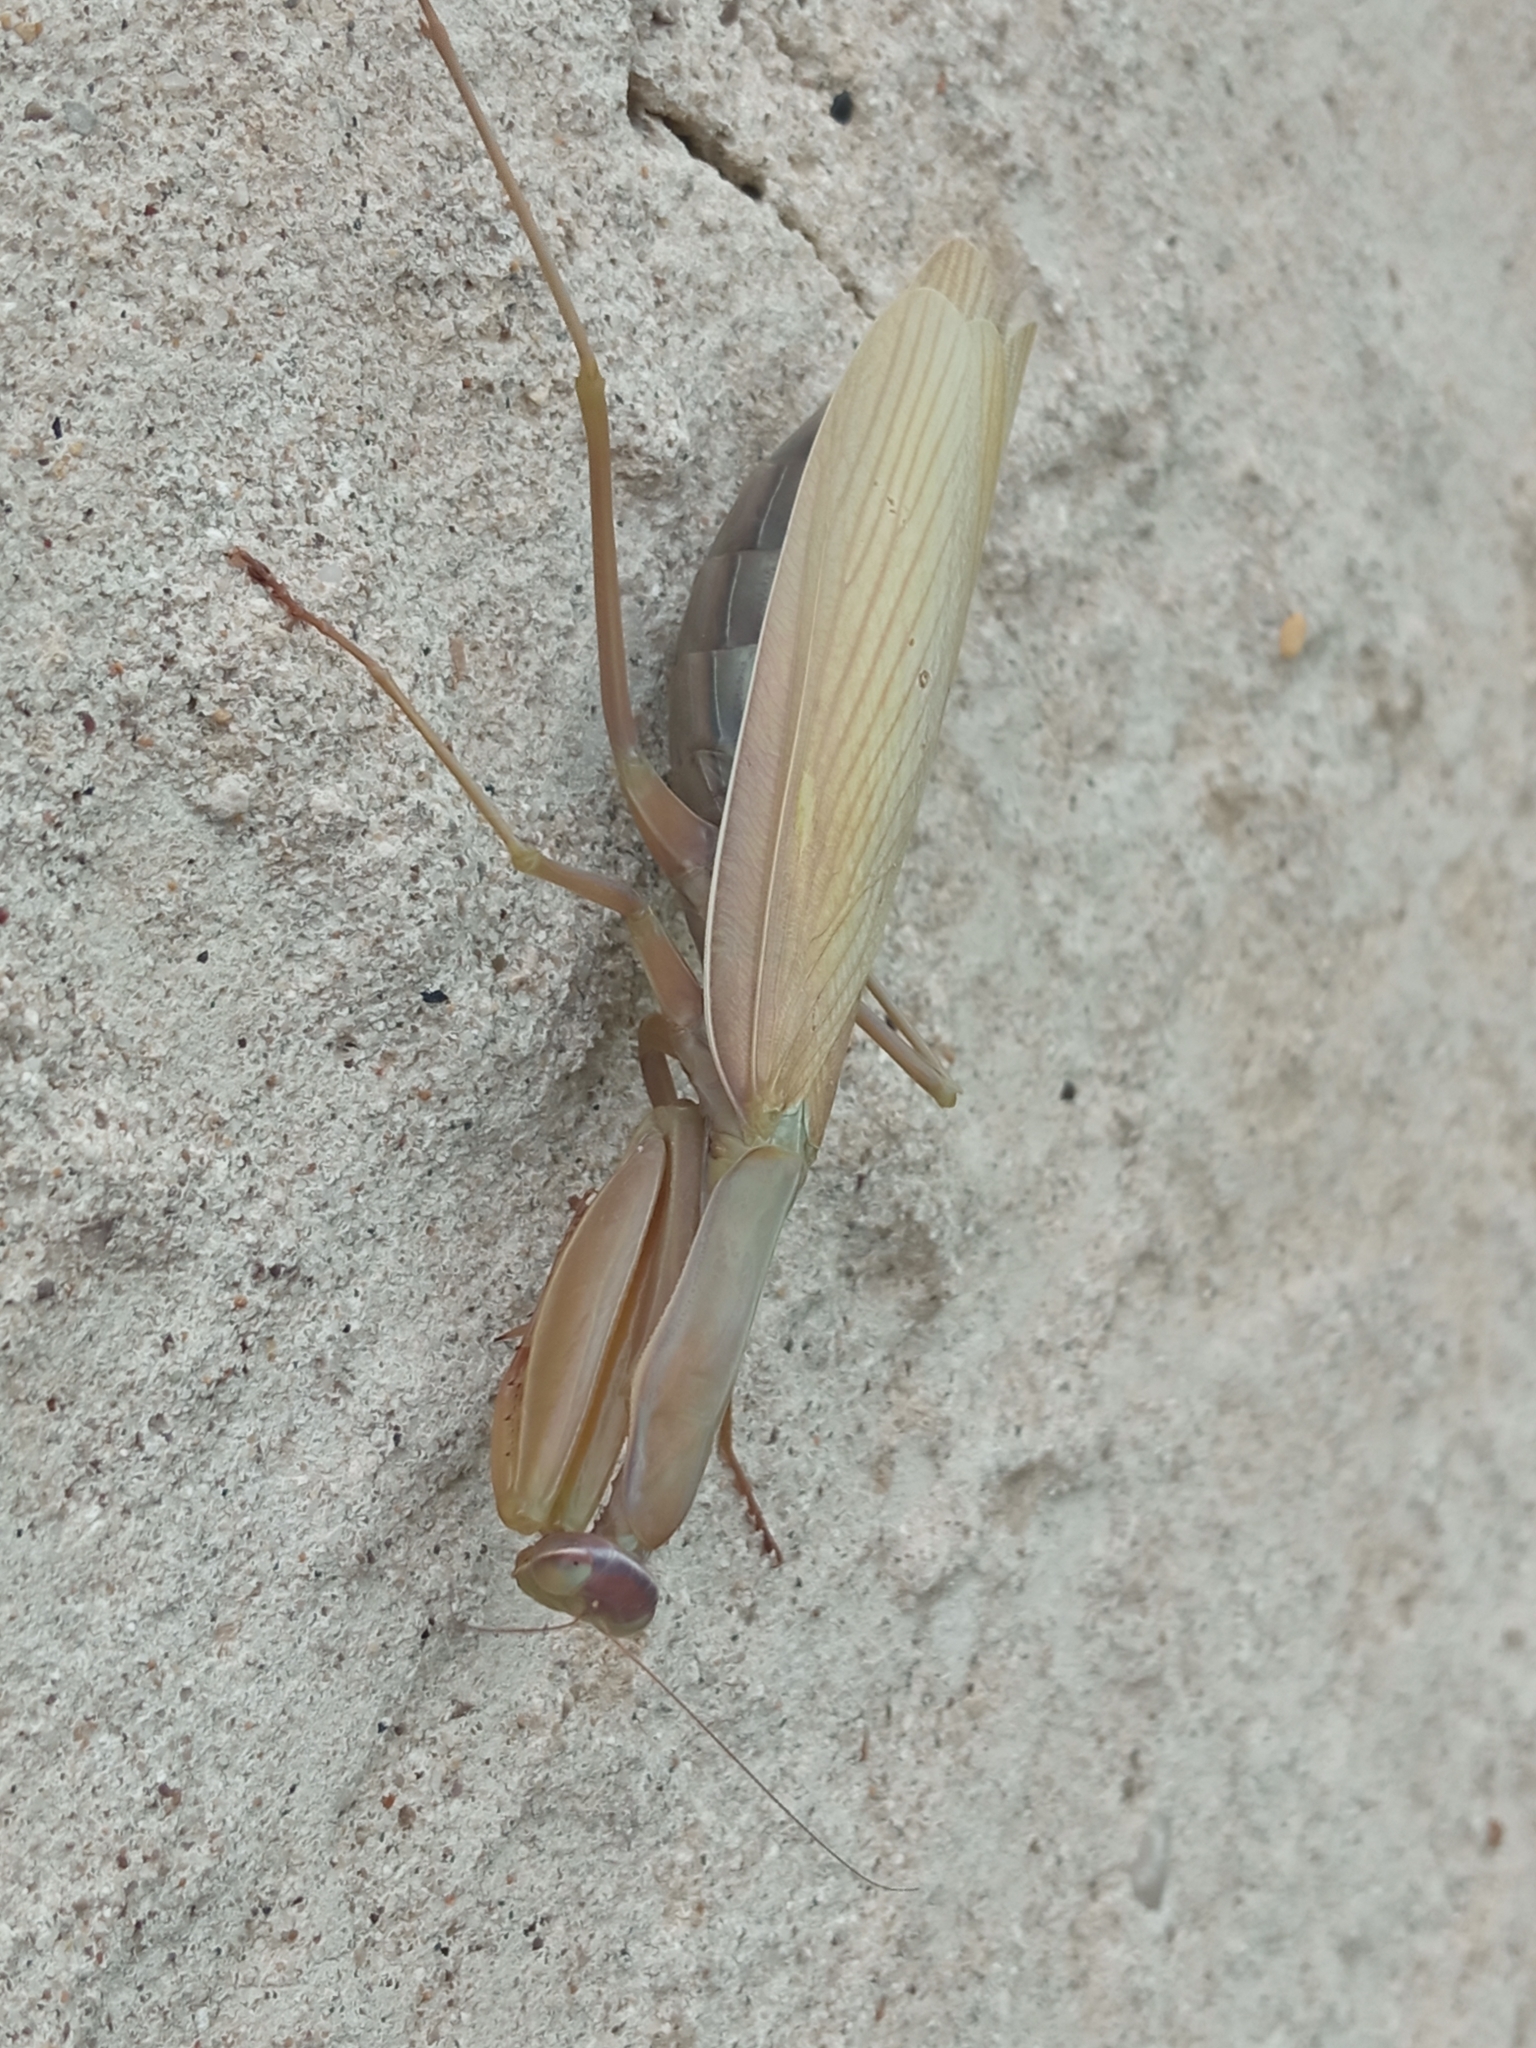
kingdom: Animalia
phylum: Arthropoda
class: Insecta
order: Mantodea
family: Mantidae
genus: Mantis
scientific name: Mantis religiosa
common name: Praying mantis
